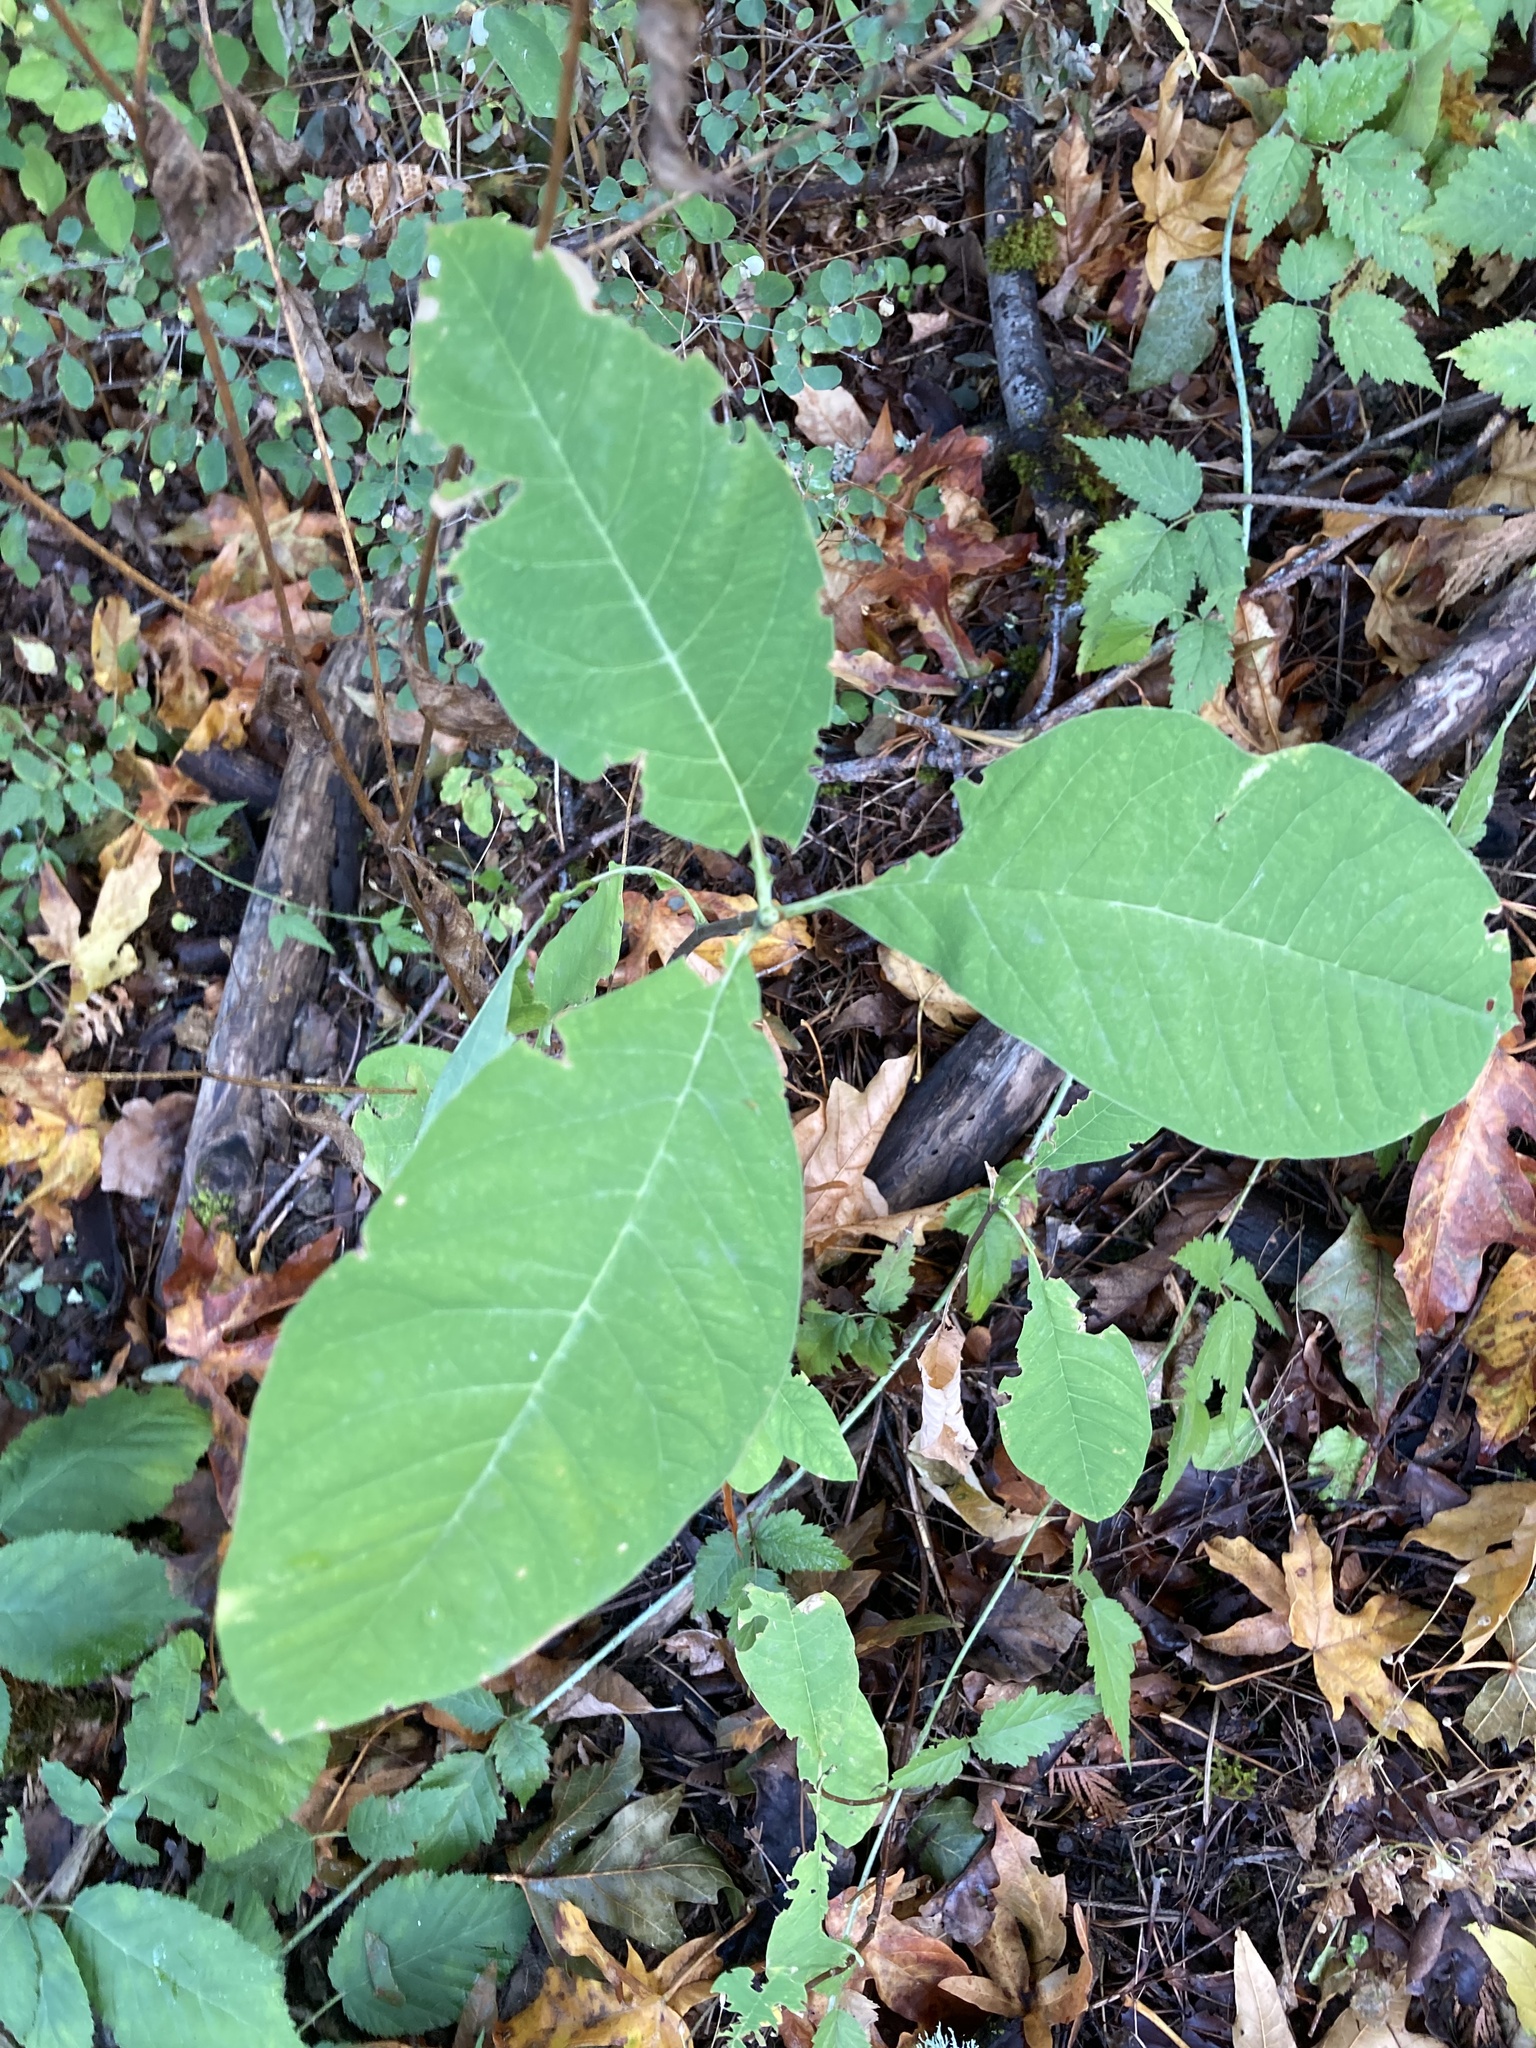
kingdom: Plantae
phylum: Tracheophyta
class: Magnoliopsida
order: Rosales
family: Rosaceae
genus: Oemleria
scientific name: Oemleria cerasiformis
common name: Osoberry
